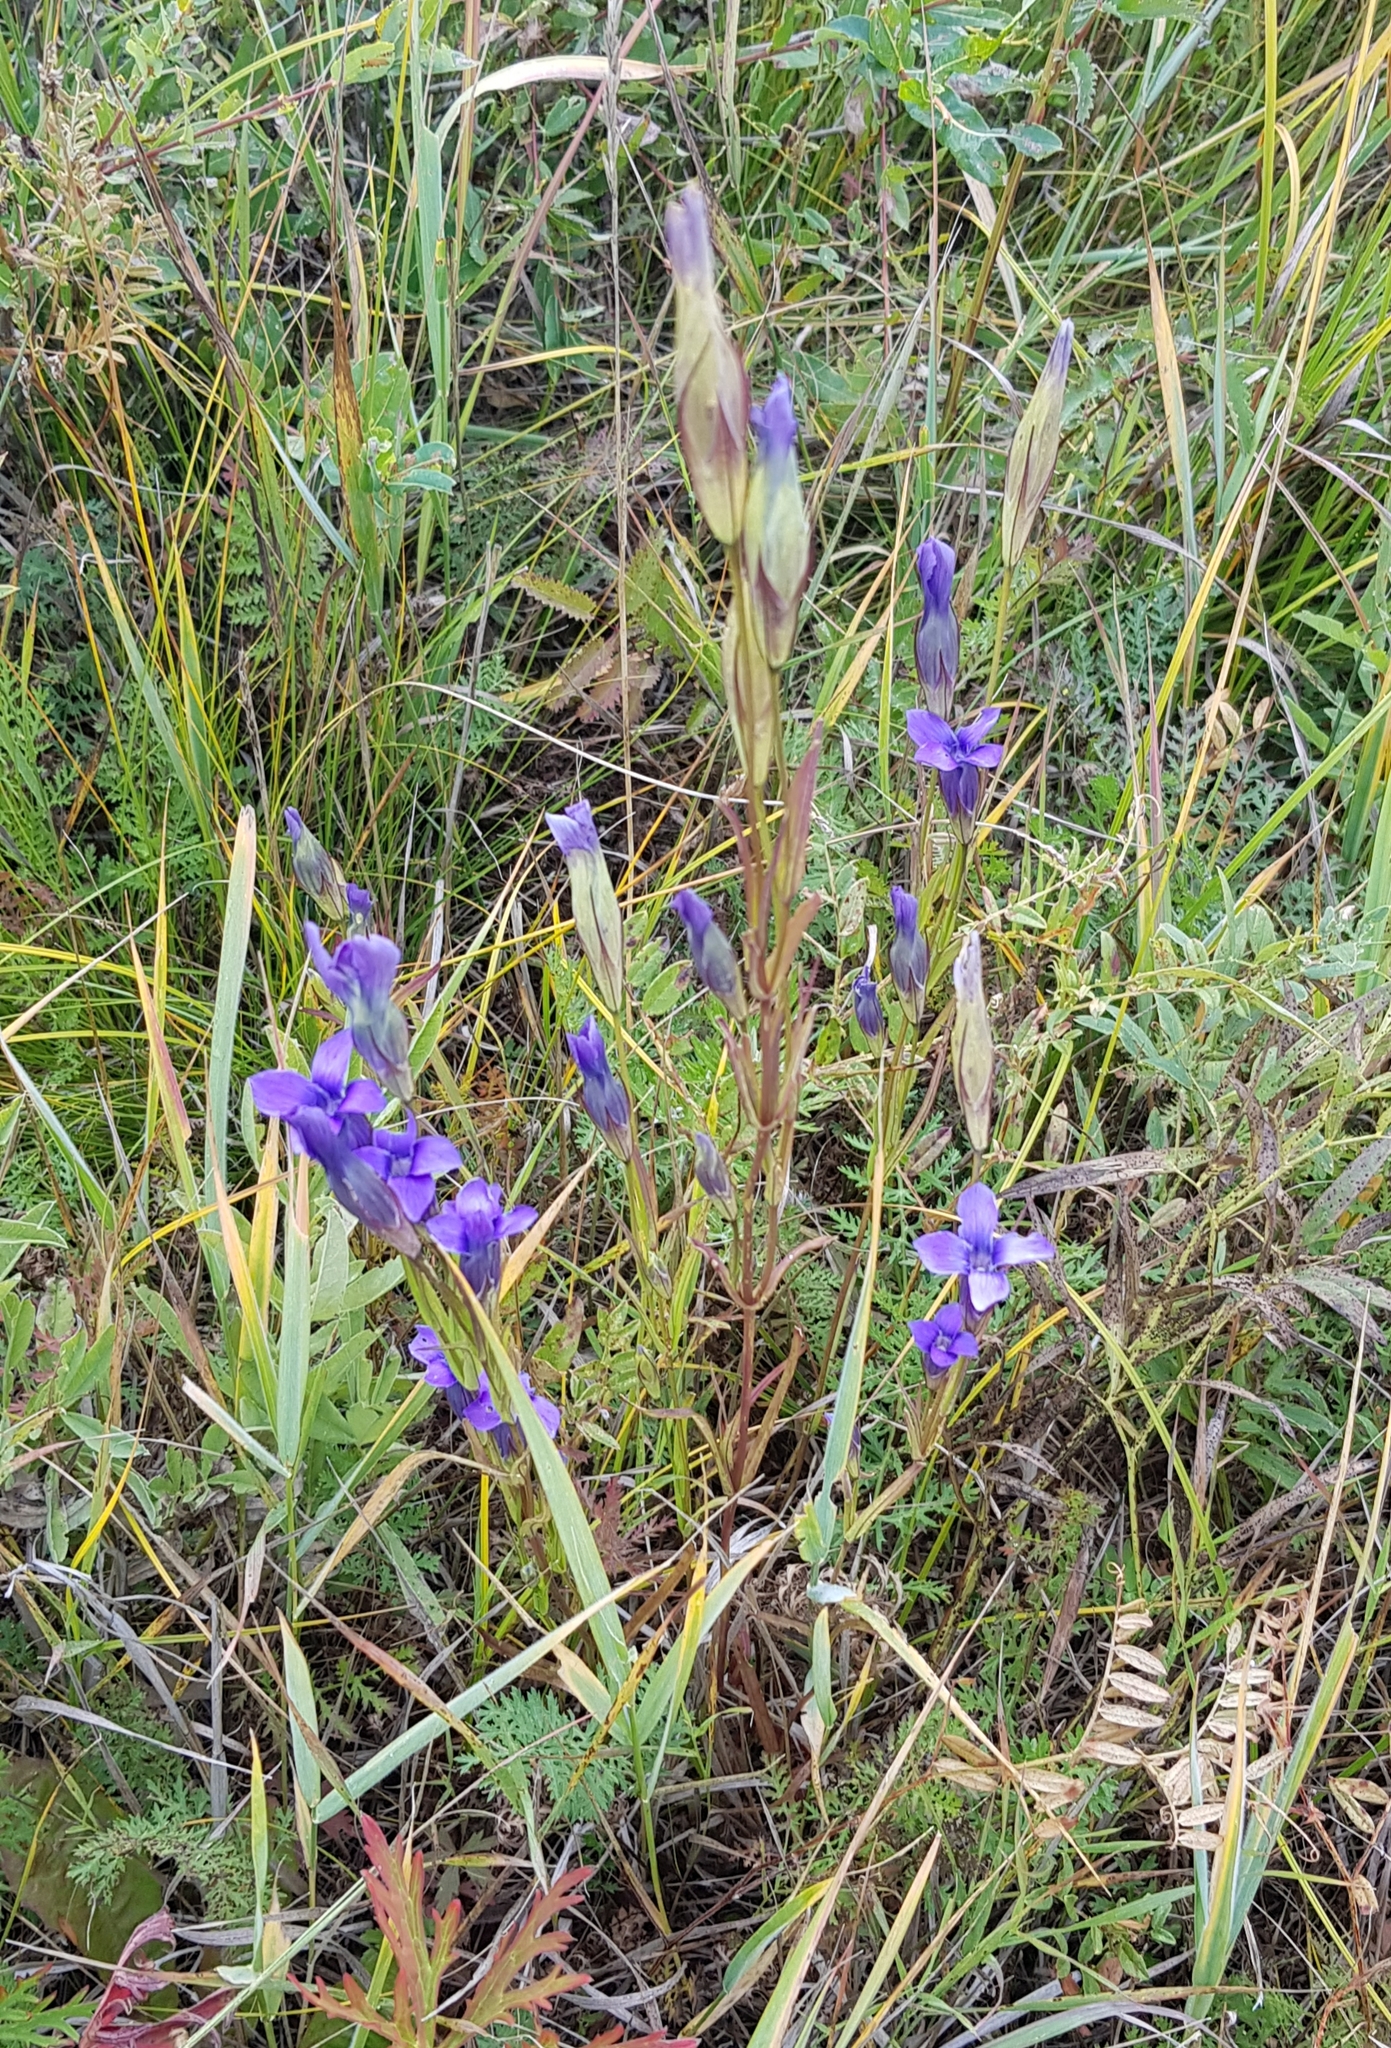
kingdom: Plantae
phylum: Tracheophyta
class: Magnoliopsida
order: Gentianales
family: Gentianaceae
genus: Gentianopsis
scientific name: Gentianopsis barbata
